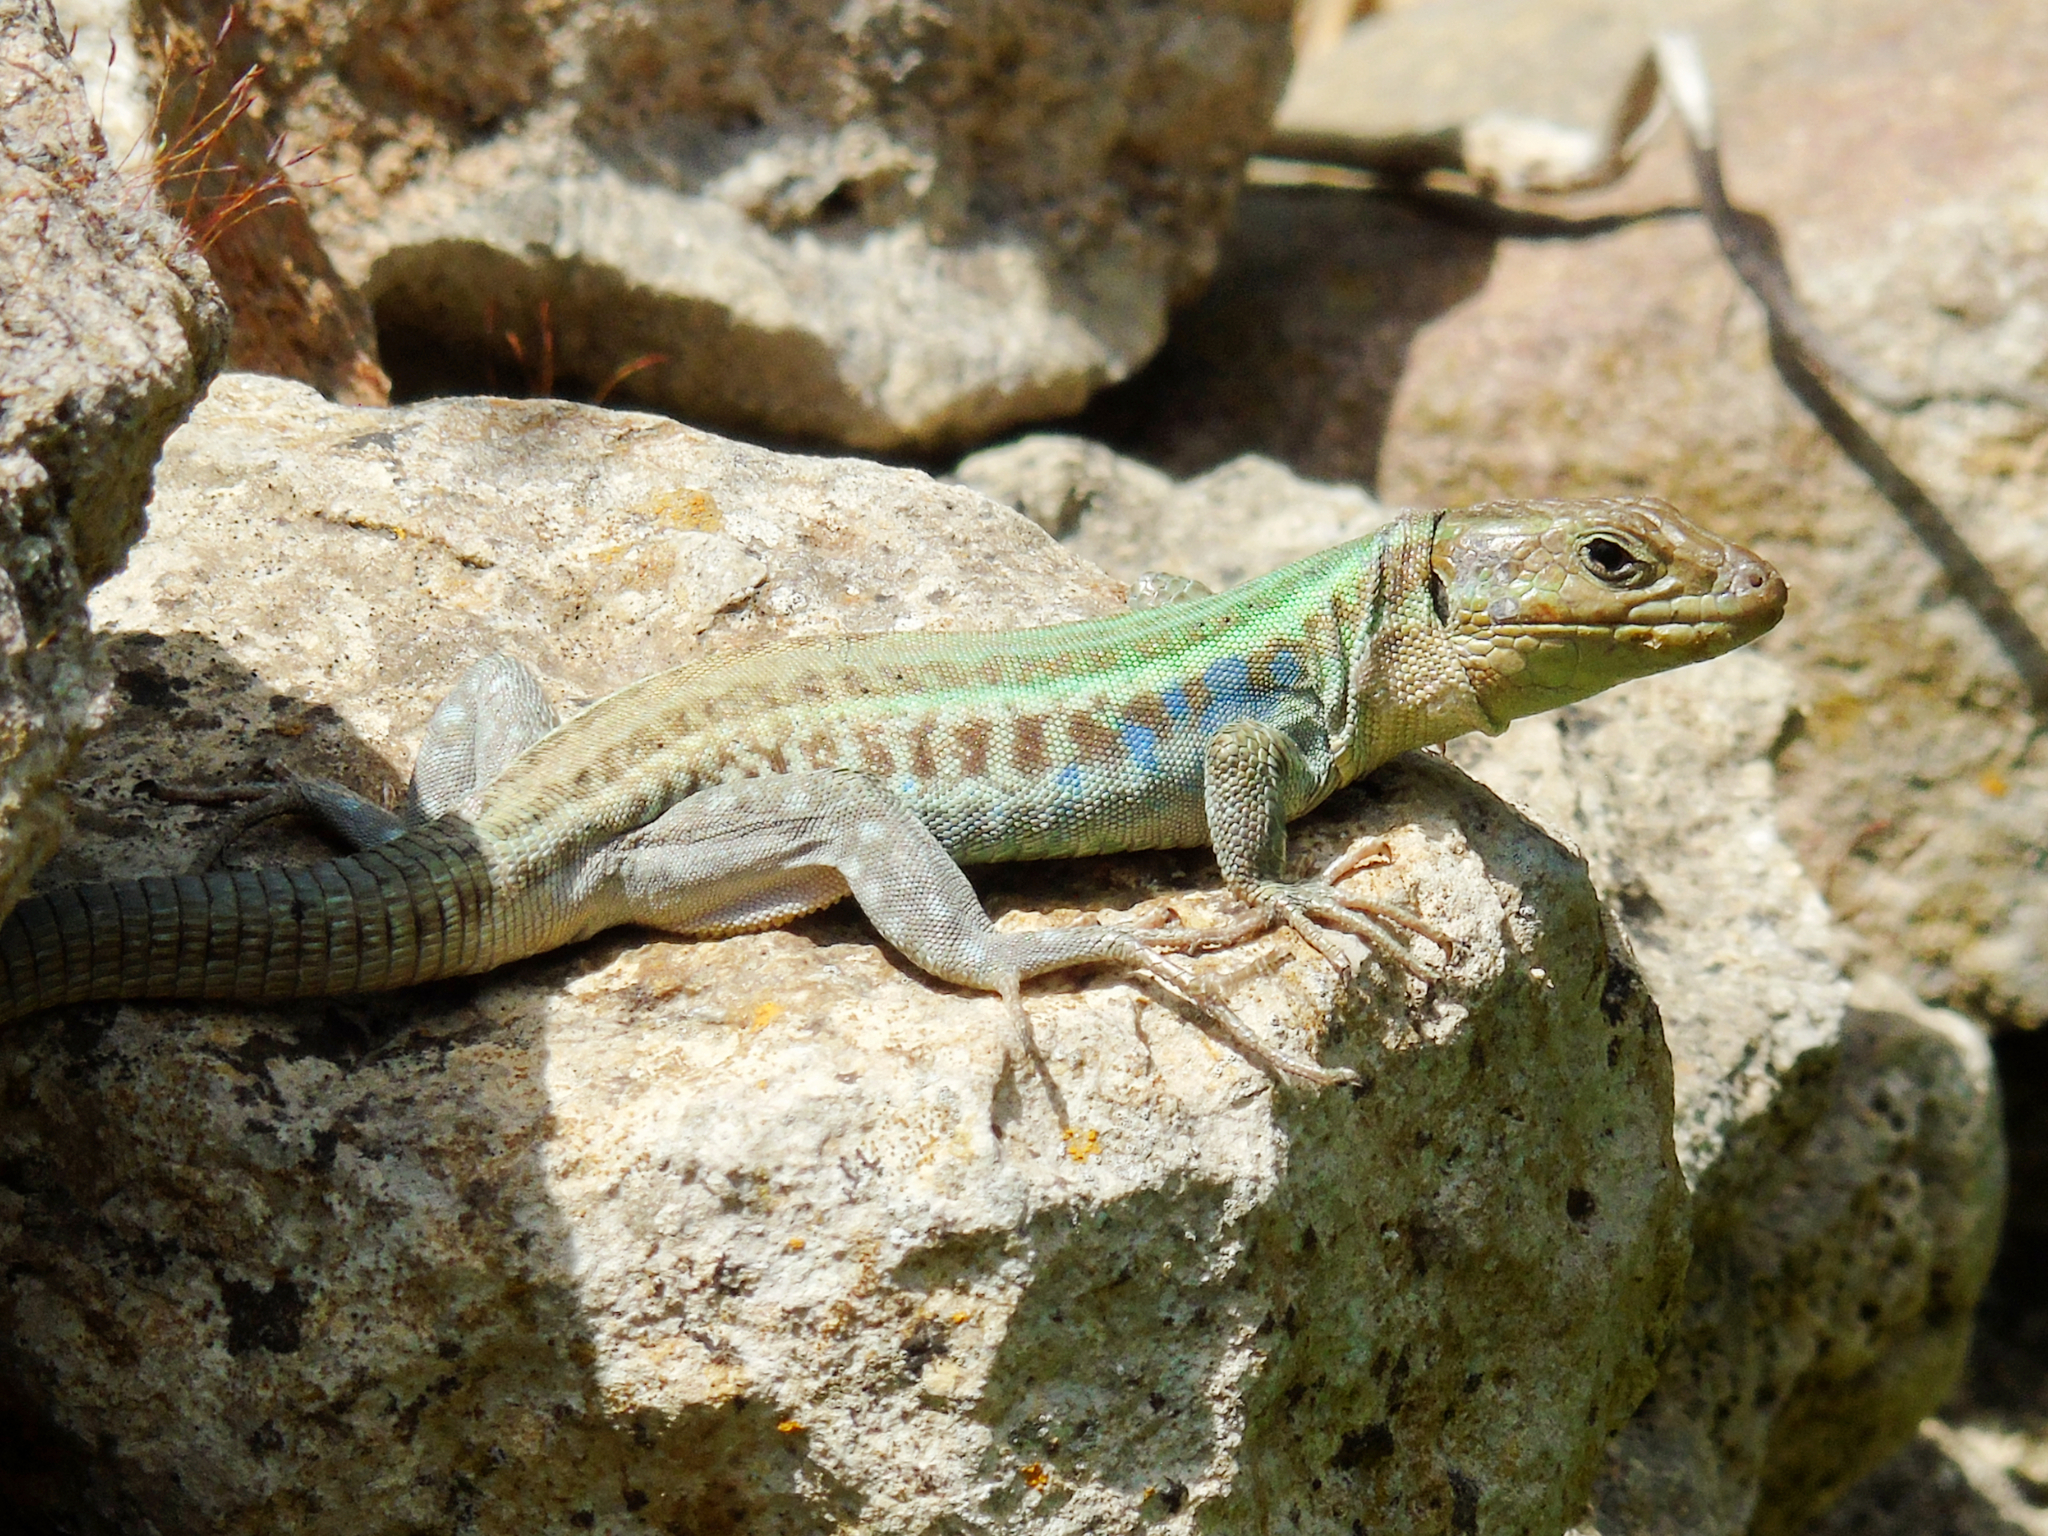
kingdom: Animalia
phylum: Chordata
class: Squamata
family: Lacertidae
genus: Podarcis
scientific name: Podarcis peloponnesiacus
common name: Peloponnese wall lizard
